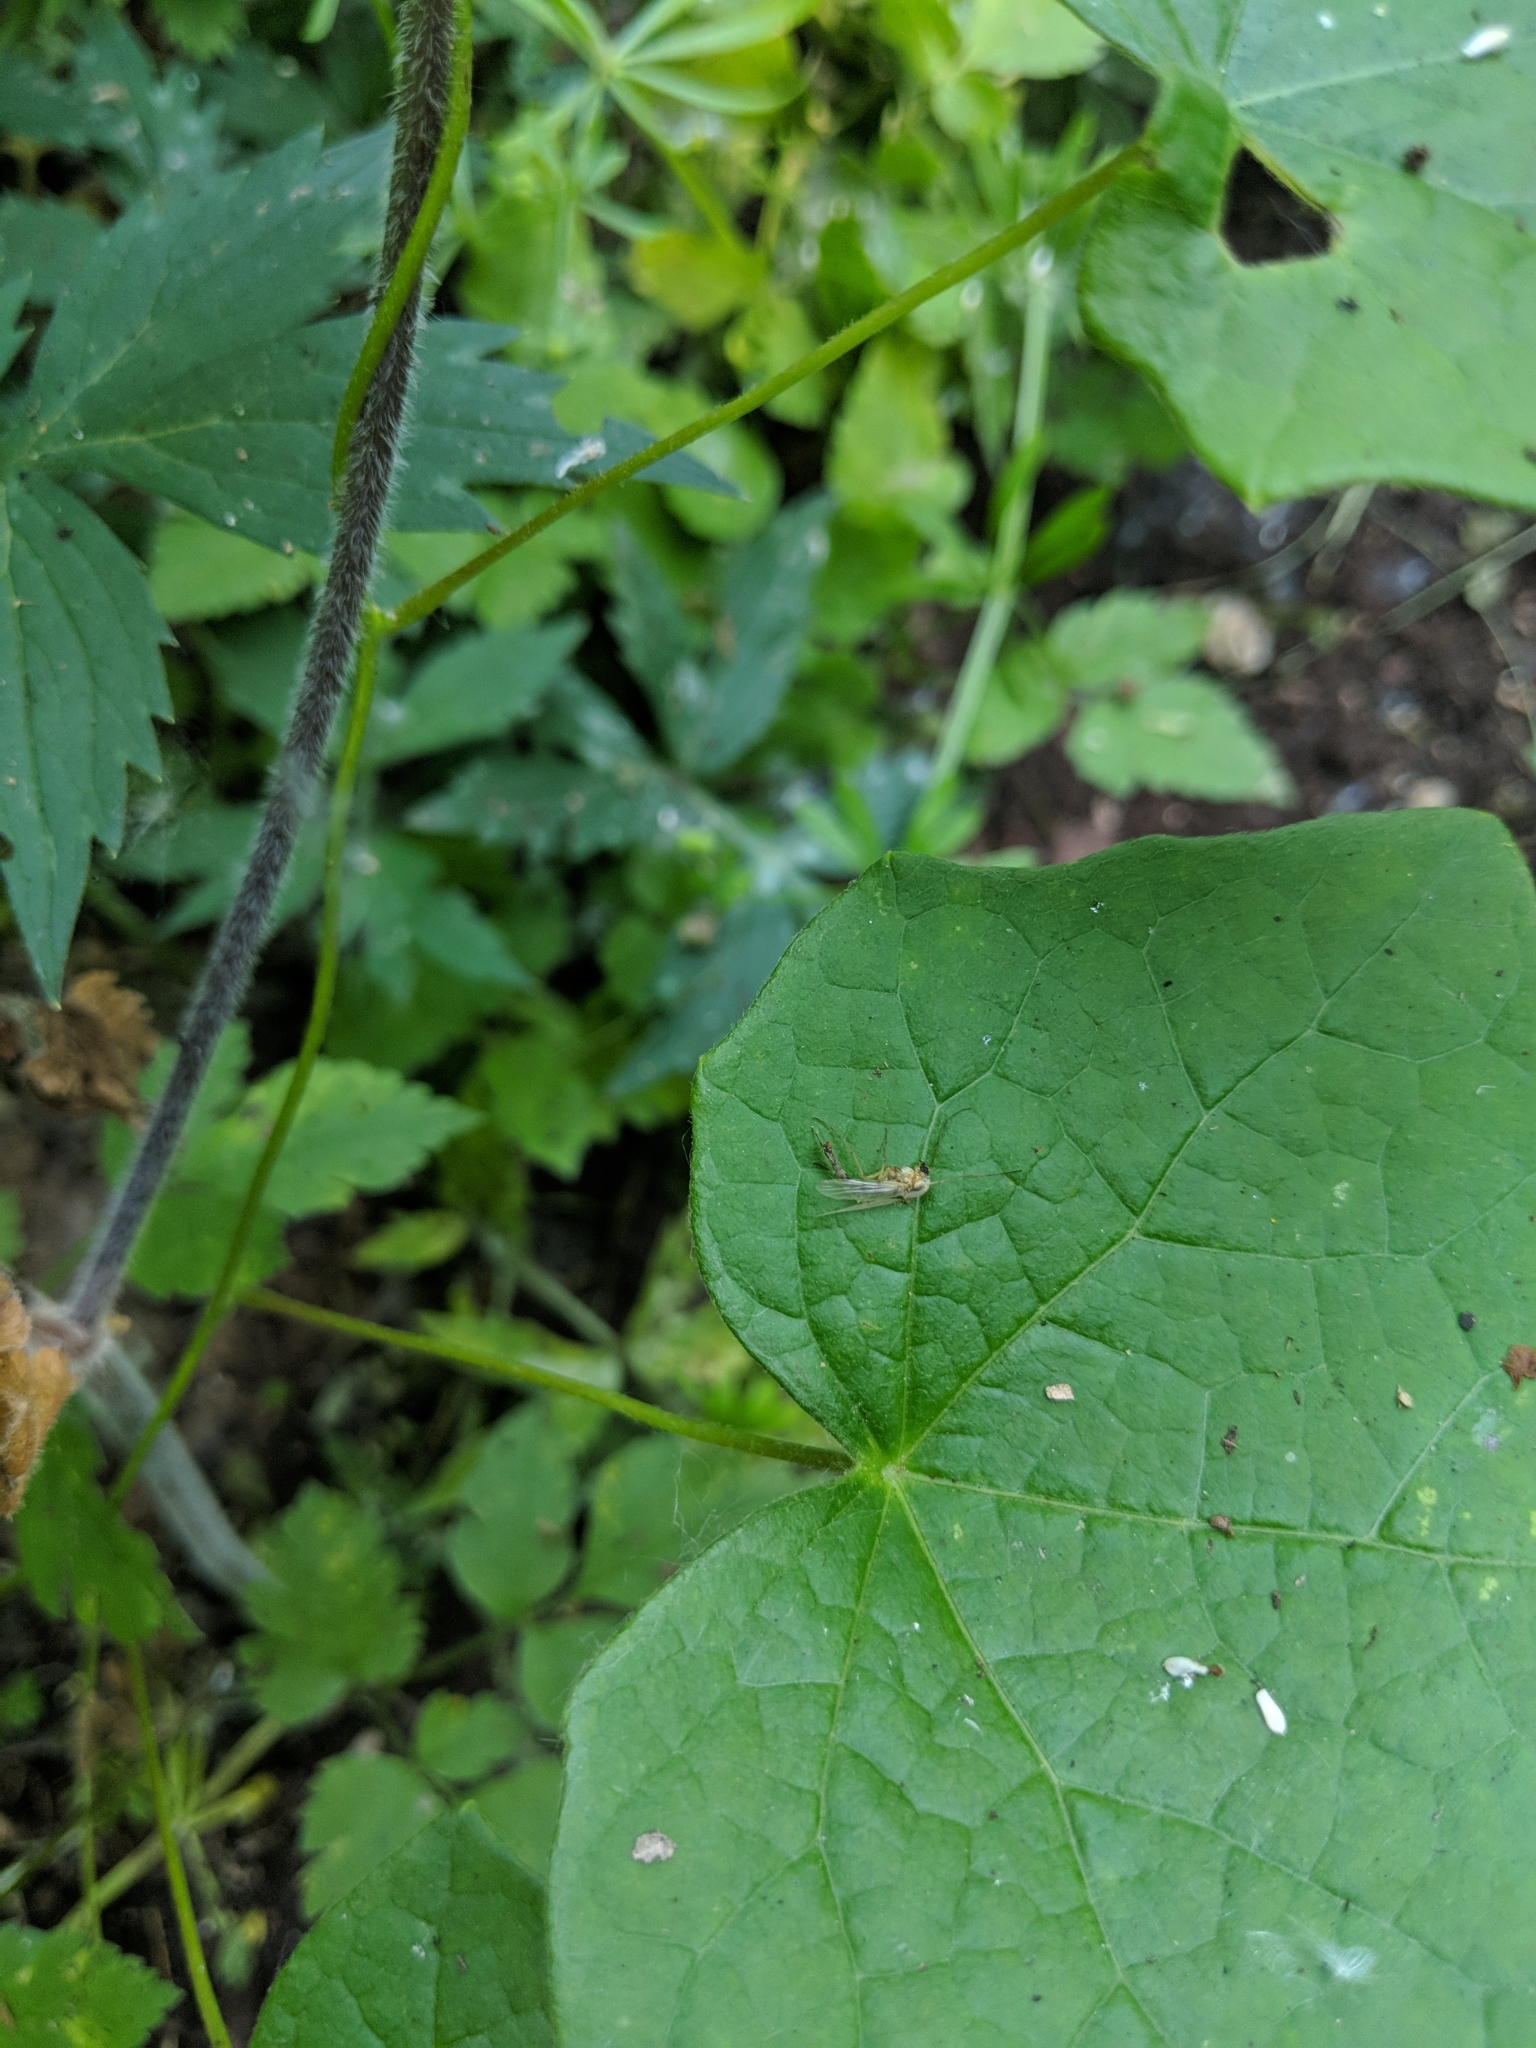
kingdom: Plantae
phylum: Tracheophyta
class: Magnoliopsida
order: Ranunculales
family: Menispermaceae
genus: Menispermum
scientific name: Menispermum canadense
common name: Moonseed
